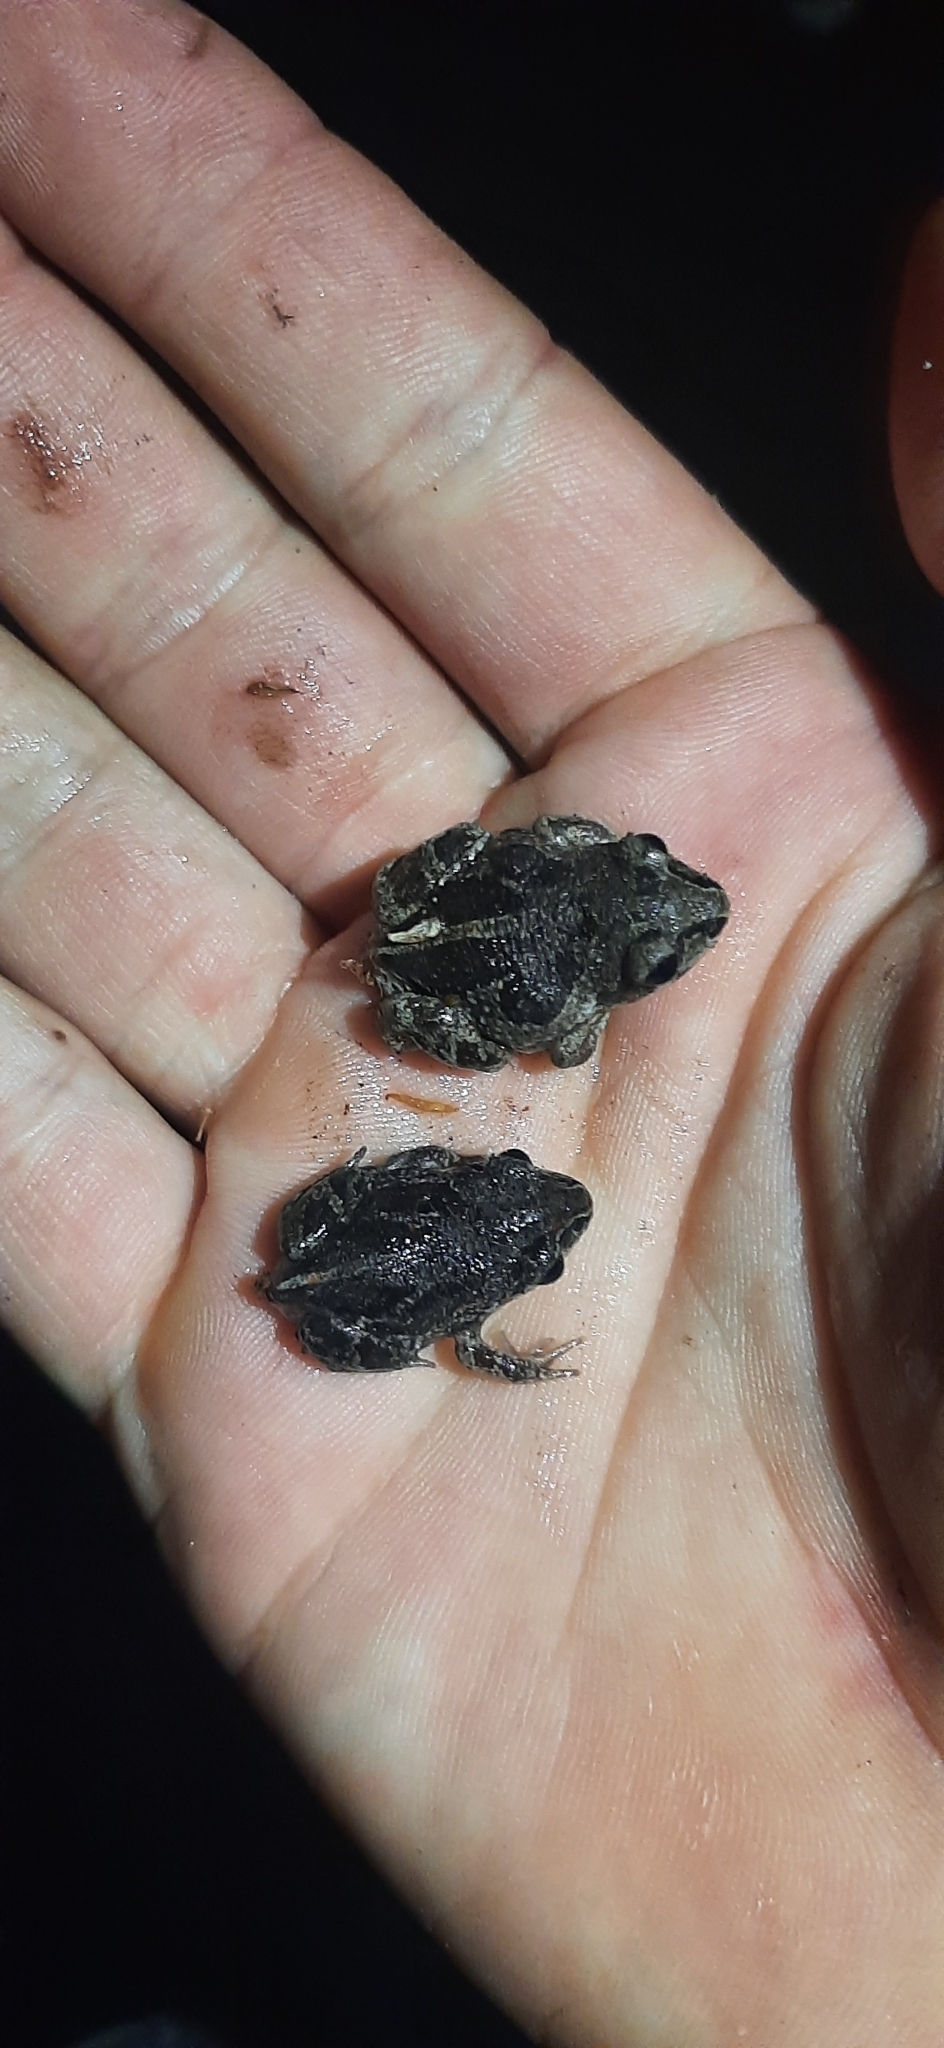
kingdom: Animalia
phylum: Chordata
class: Amphibia
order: Anura
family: Pelobatidae
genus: Pelobates
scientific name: Pelobates fuscus
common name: Common eurasian spadefoot toad
